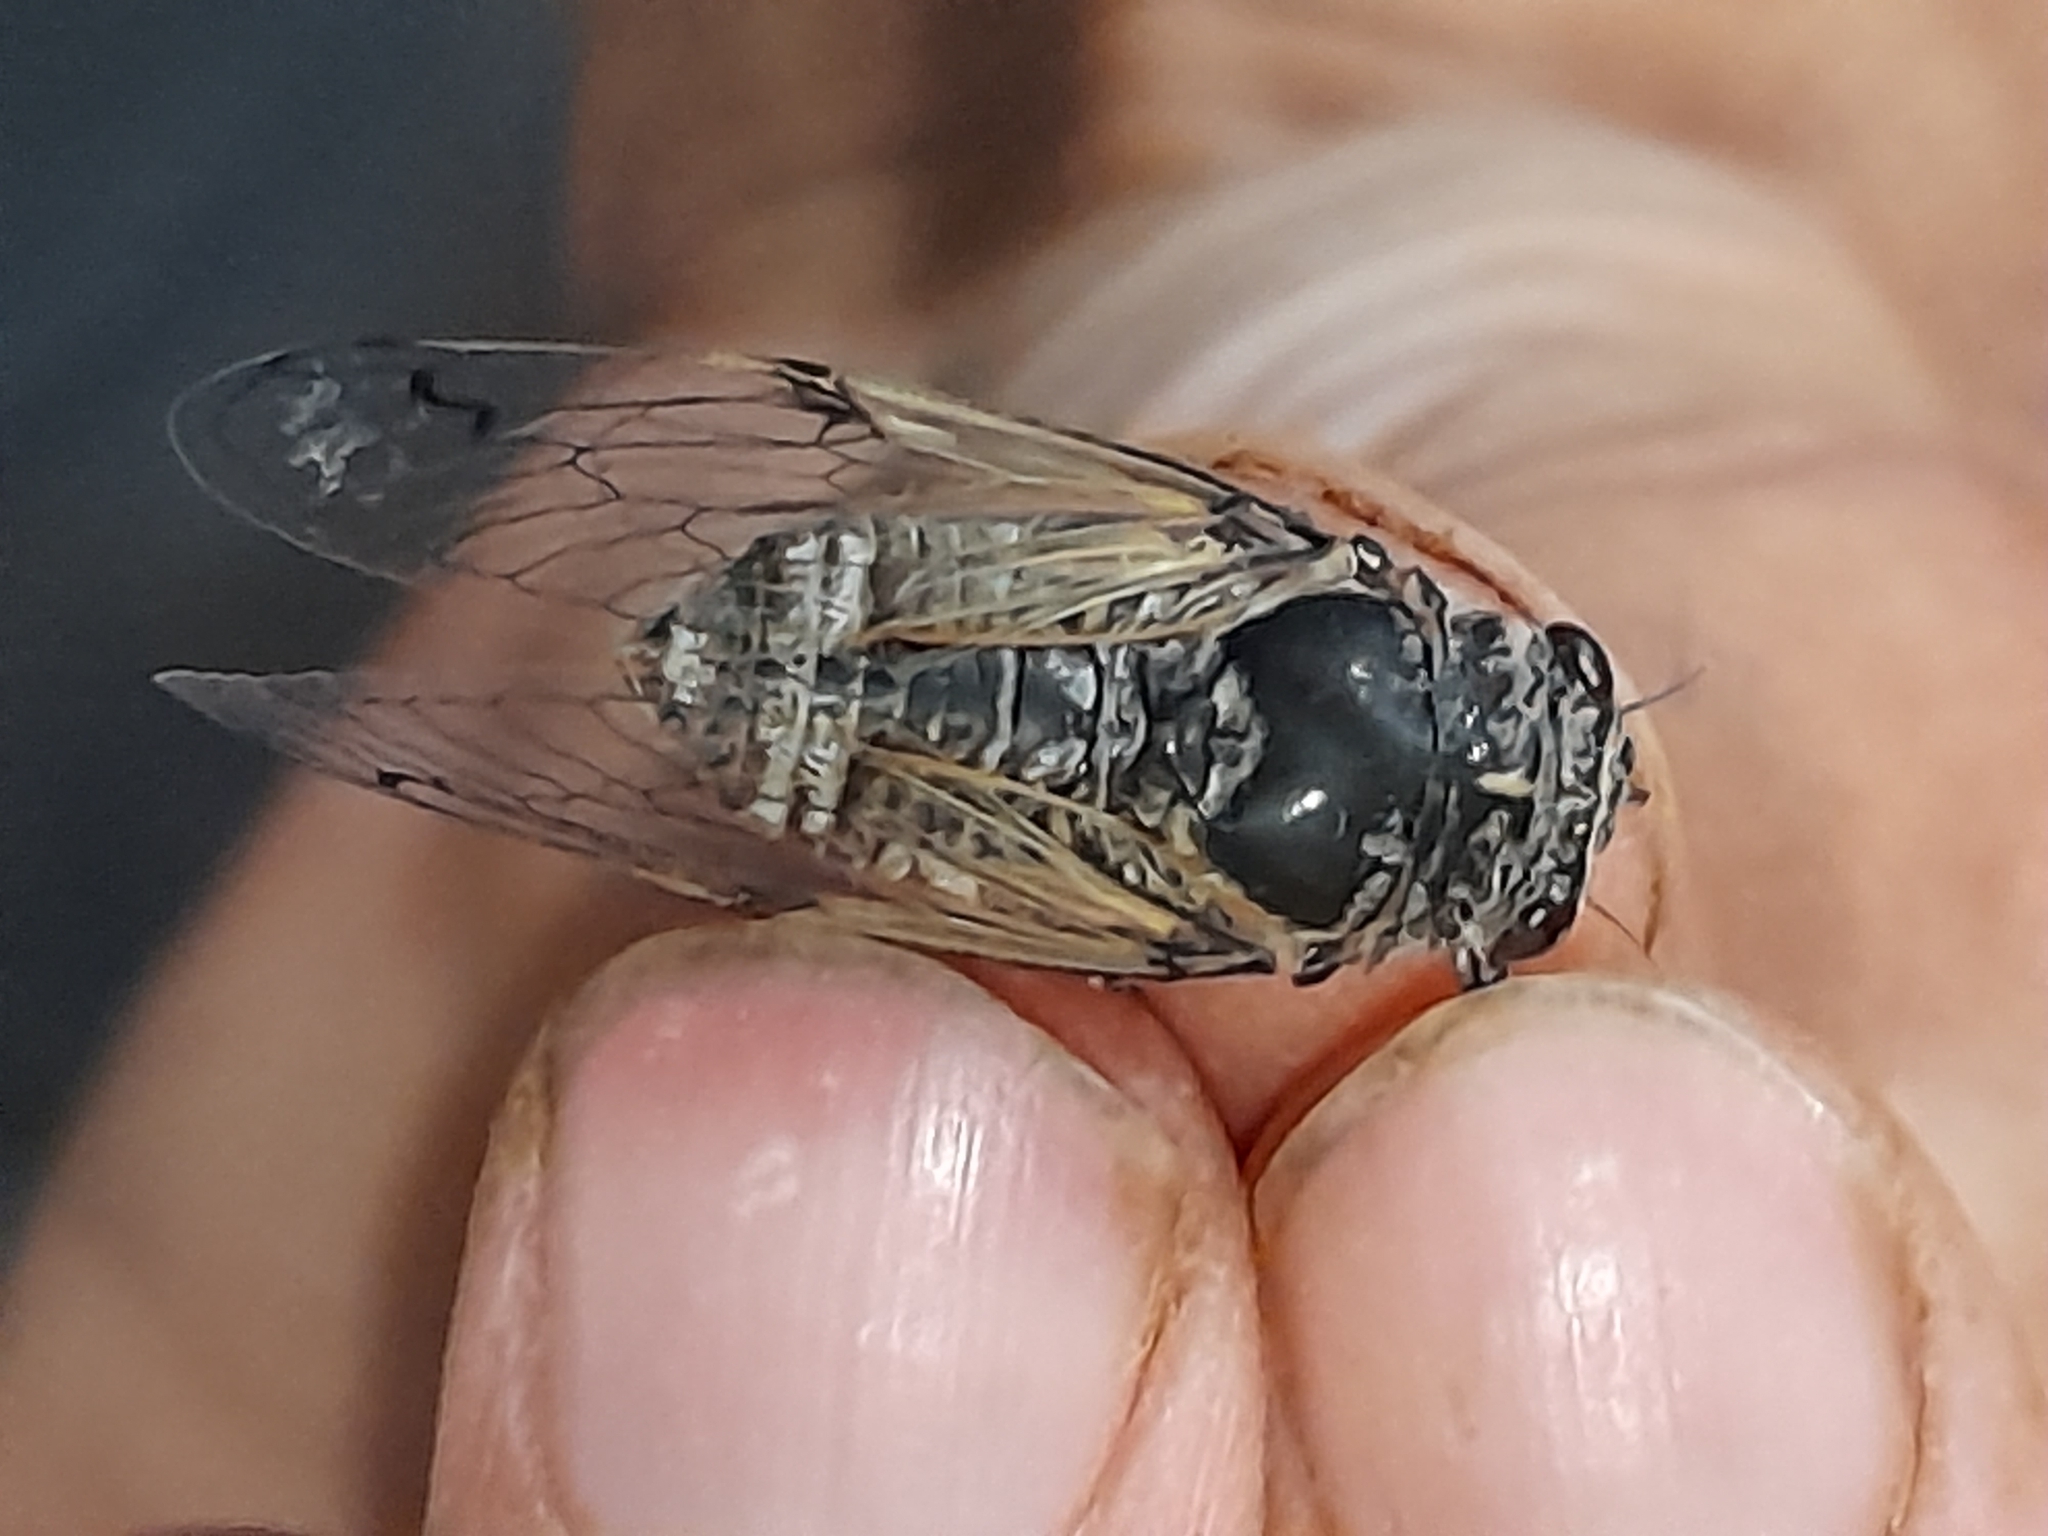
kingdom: Animalia
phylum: Arthropoda
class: Insecta
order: Hemiptera
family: Cicadidae
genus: Cicadatra
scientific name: Cicadatra atra
